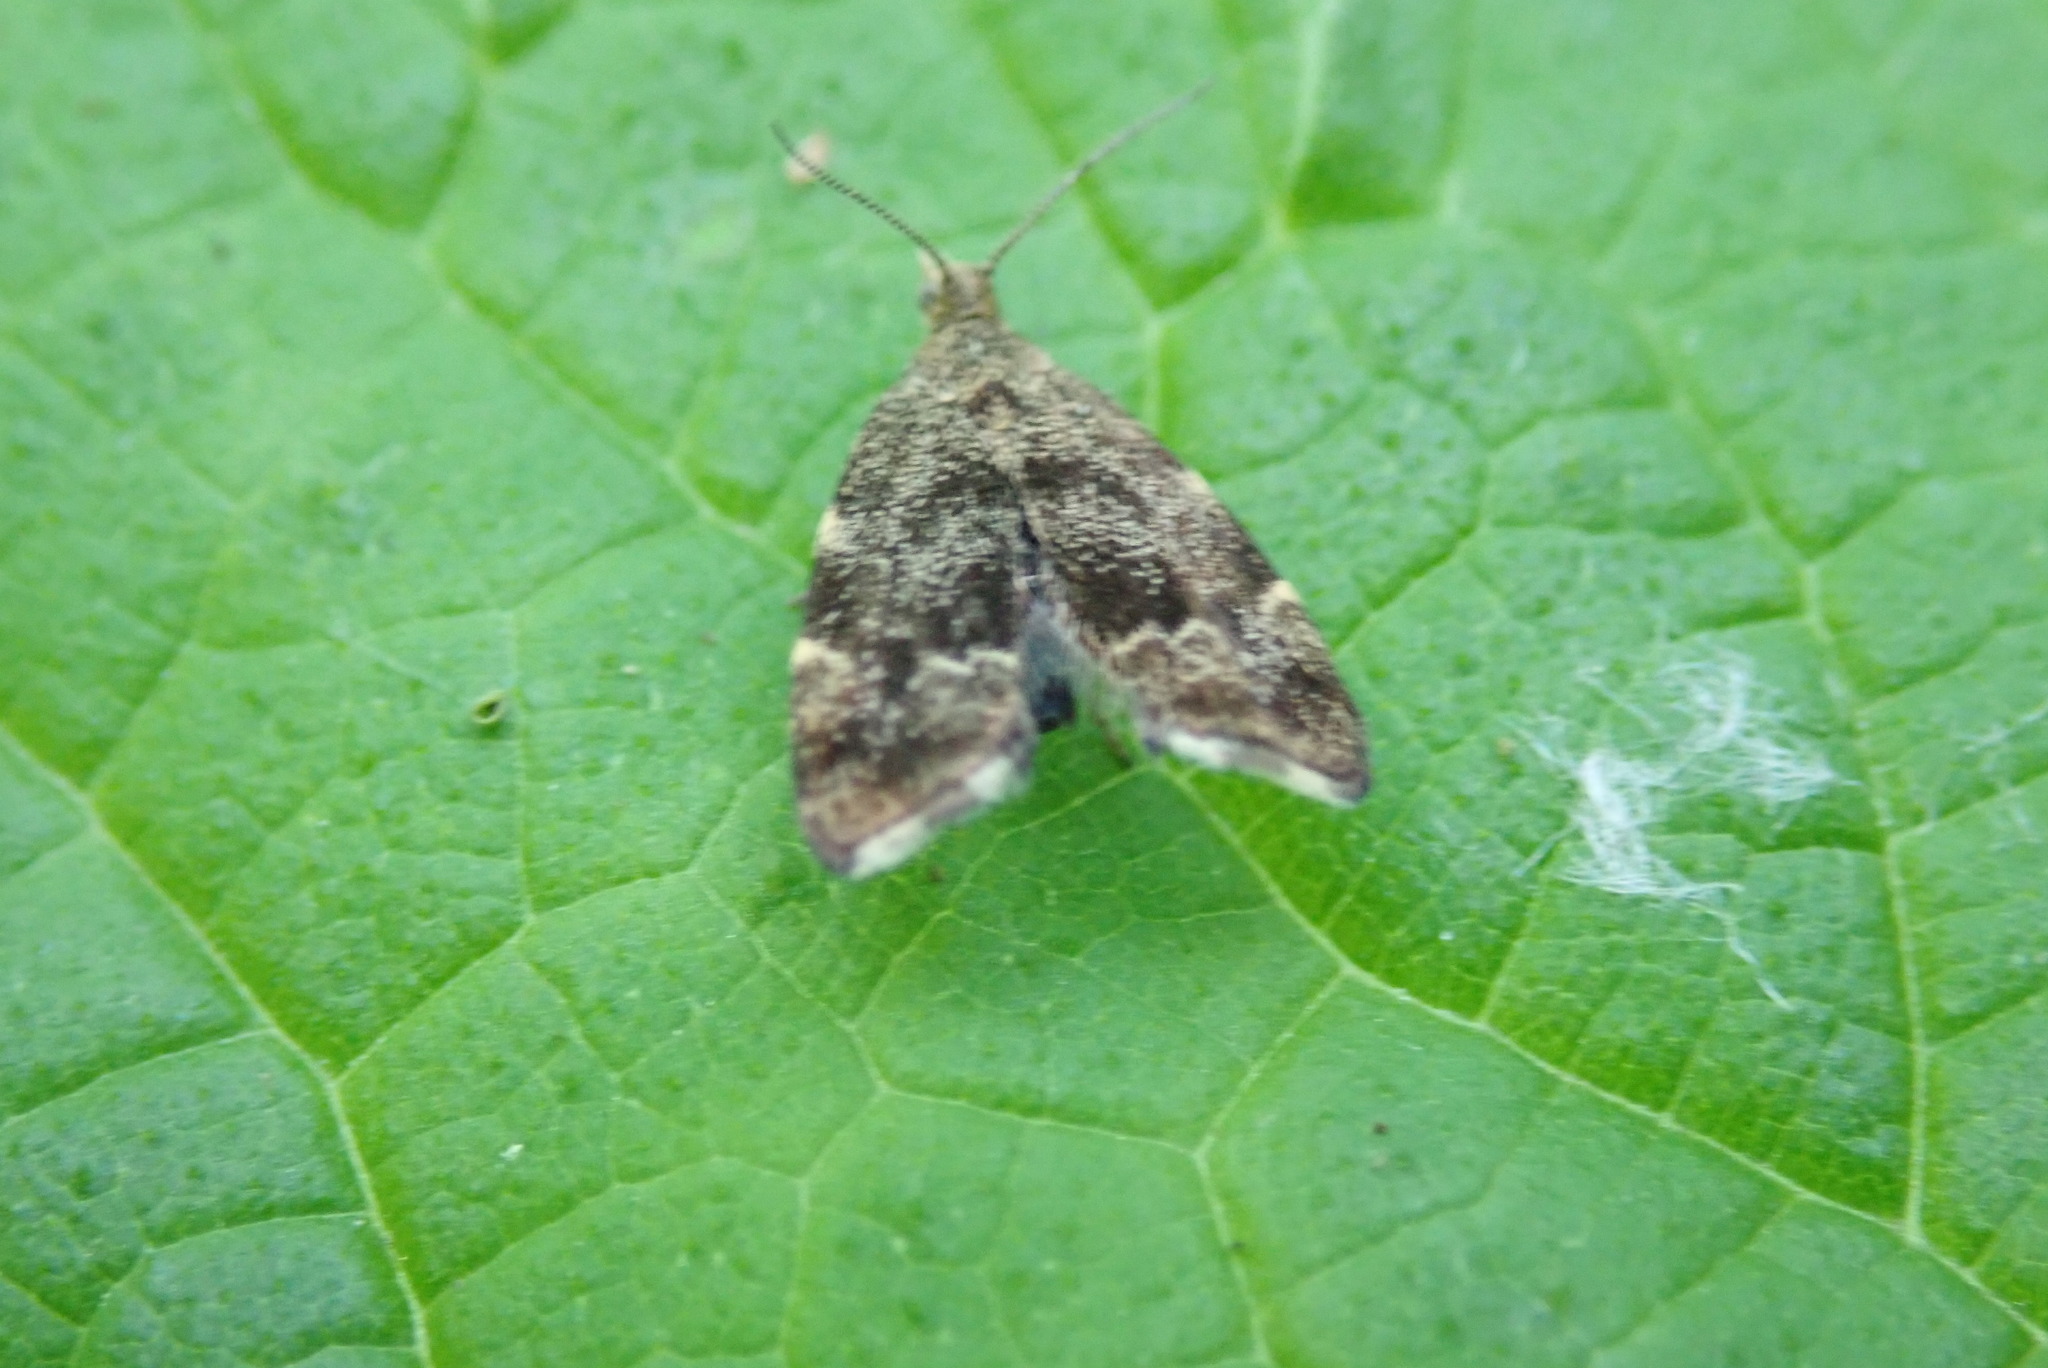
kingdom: Animalia
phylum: Arthropoda
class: Insecta
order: Lepidoptera
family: Choreutidae
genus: Anthophila
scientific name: Anthophila fabriciana
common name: Nettle-tap
